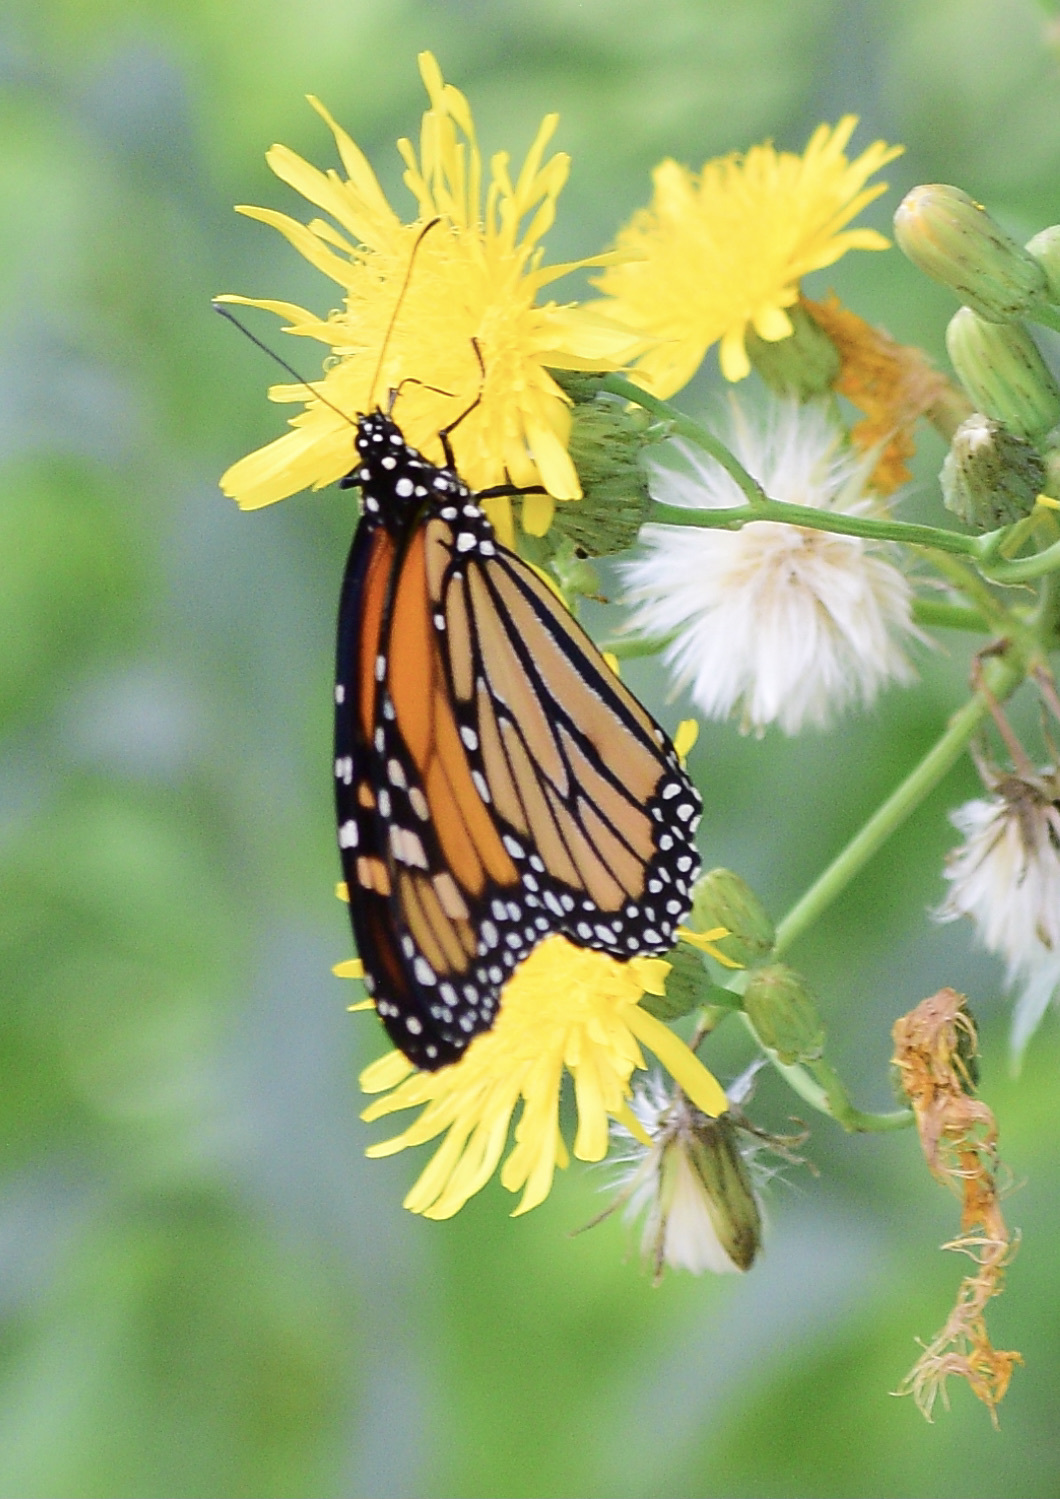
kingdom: Animalia
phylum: Arthropoda
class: Insecta
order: Lepidoptera
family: Nymphalidae
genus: Danaus
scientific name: Danaus plexippus
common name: Monarch
